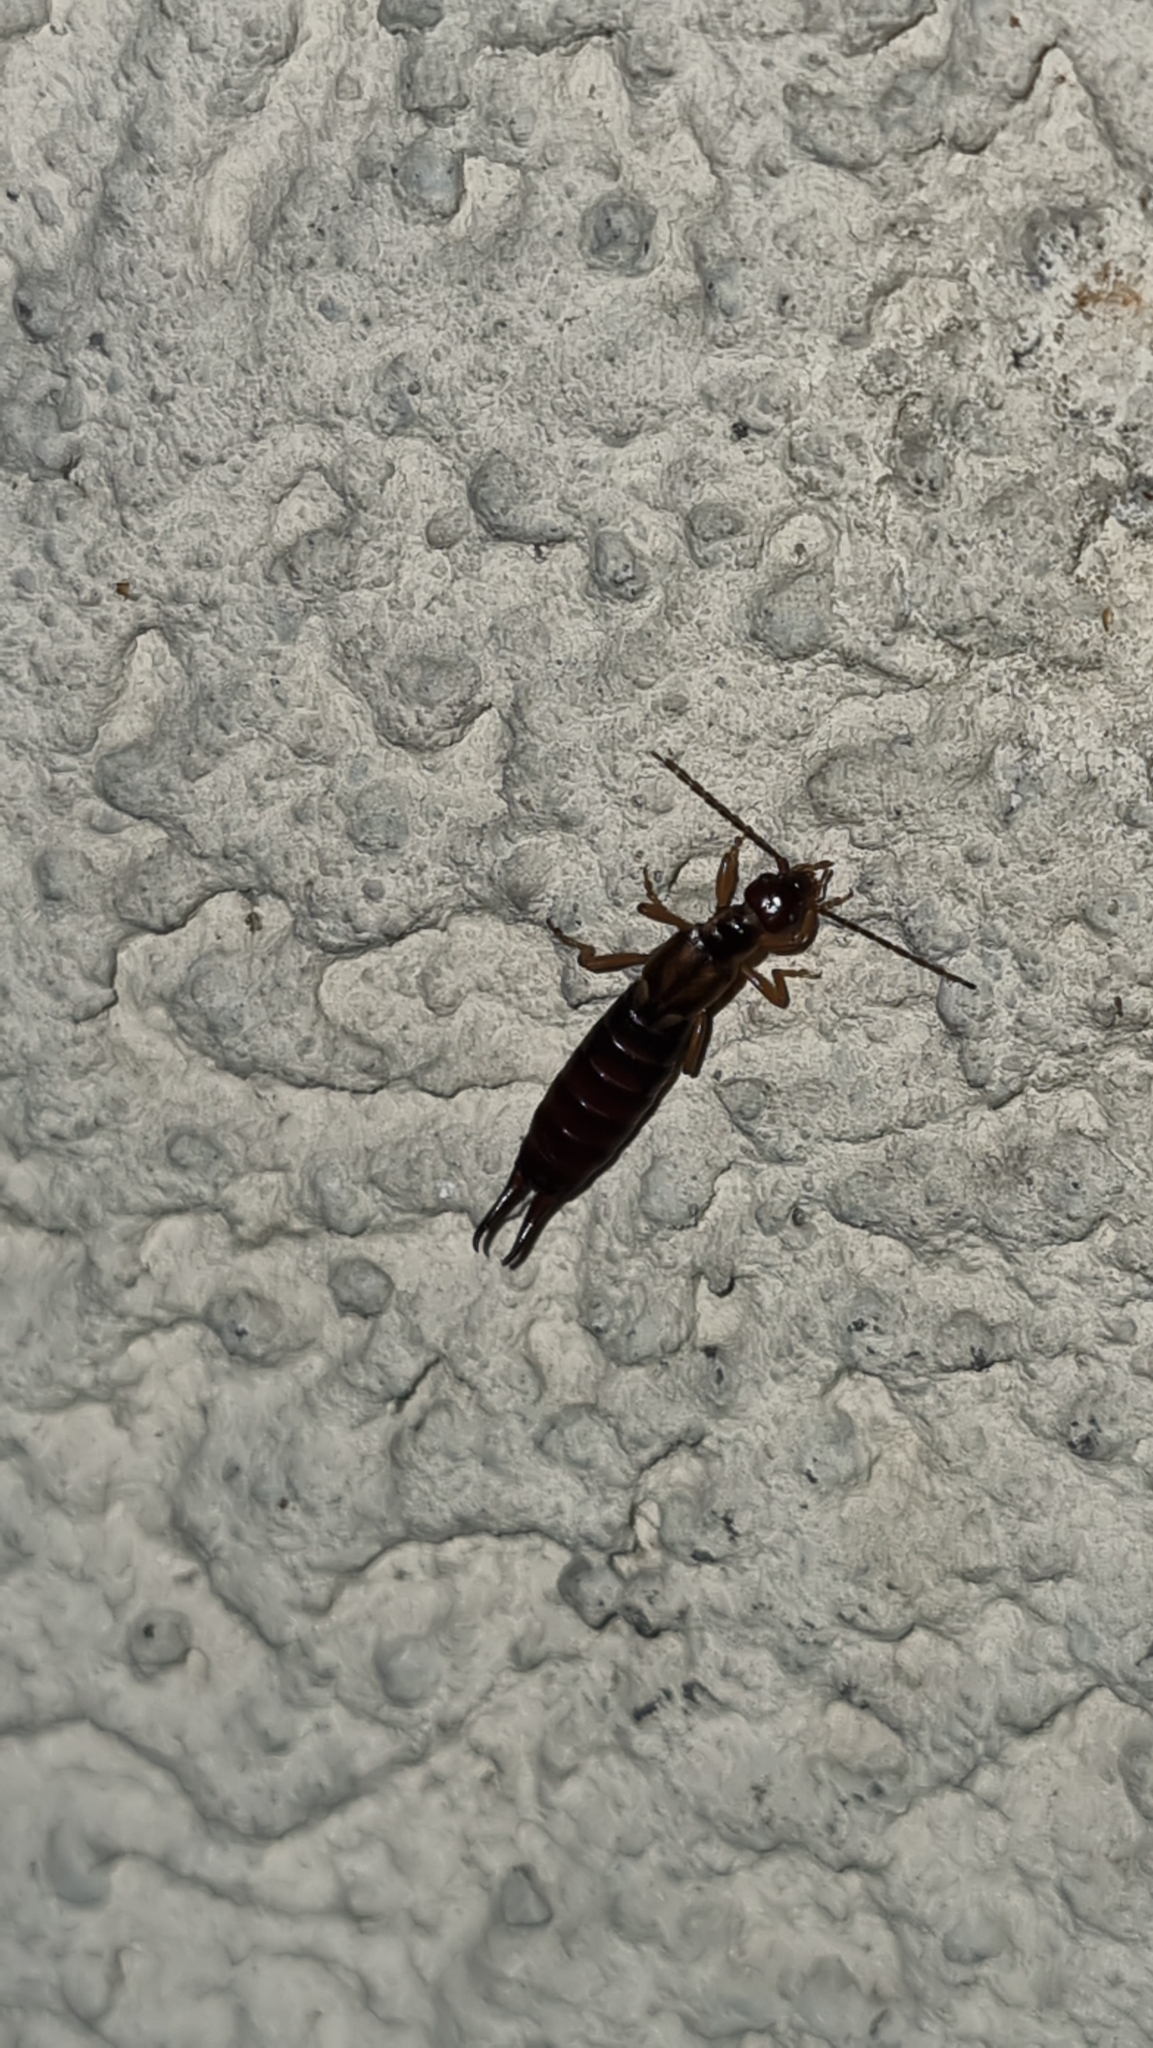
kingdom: Animalia
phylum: Arthropoda
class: Insecta
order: Dermaptera
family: Forficulidae
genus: Forficula
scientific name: Forficula
